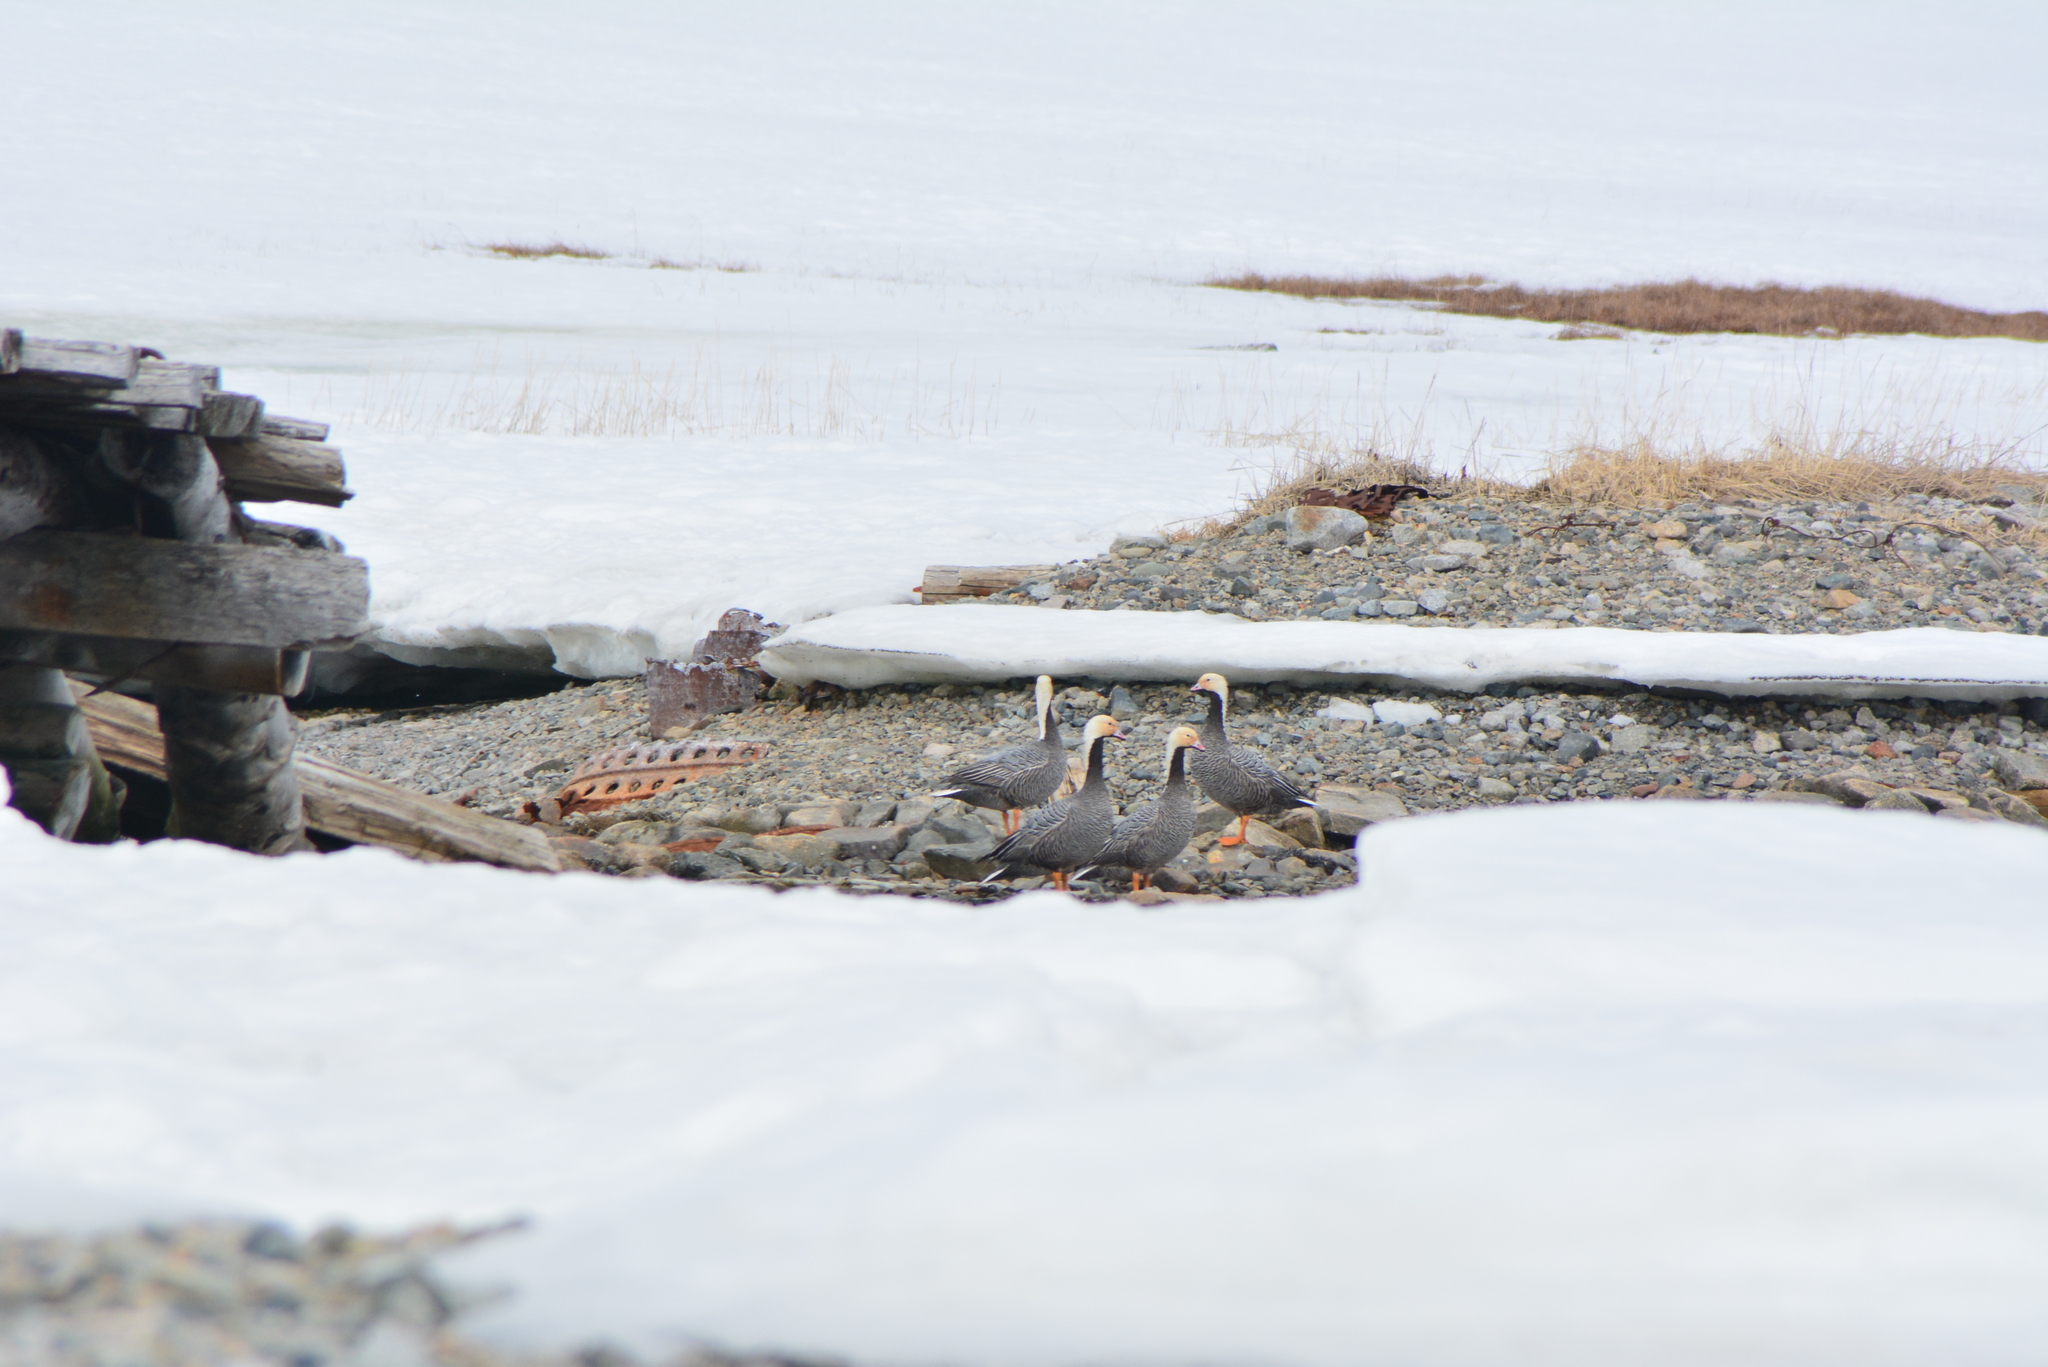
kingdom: Animalia
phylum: Chordata
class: Aves
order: Anseriformes
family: Anatidae
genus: Anser
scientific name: Anser canagicus
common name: Emperor goose
